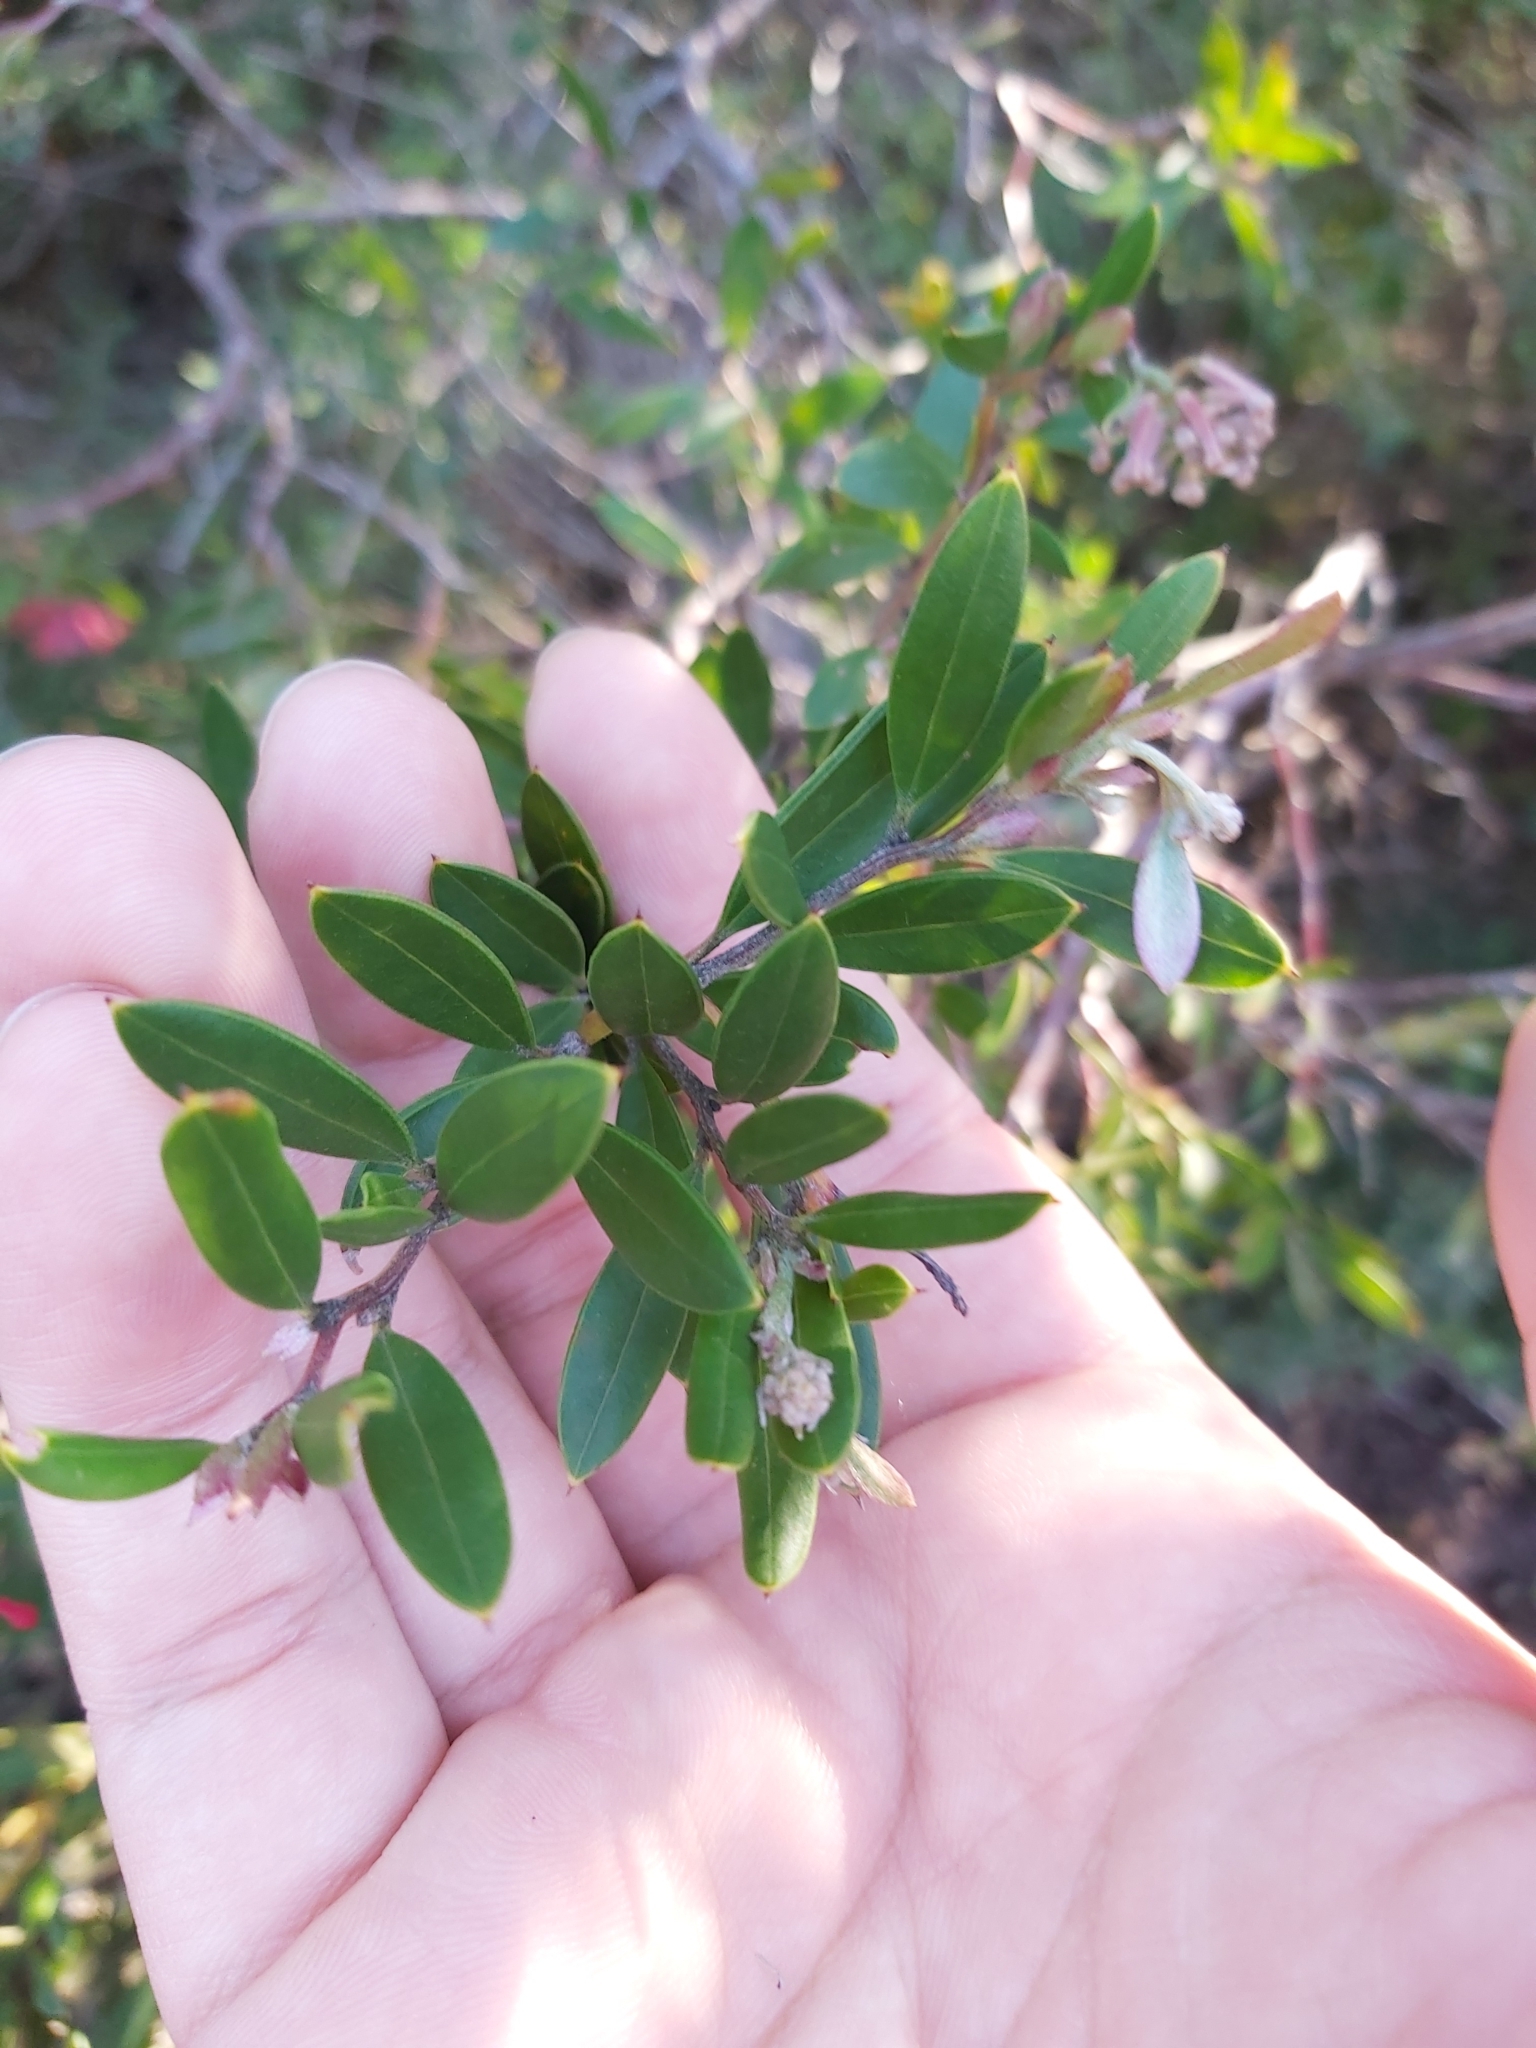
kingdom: Plantae
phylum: Tracheophyta
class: Magnoliopsida
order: Proteales
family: Proteaceae
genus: Grevillea
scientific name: Grevillea speciosa
